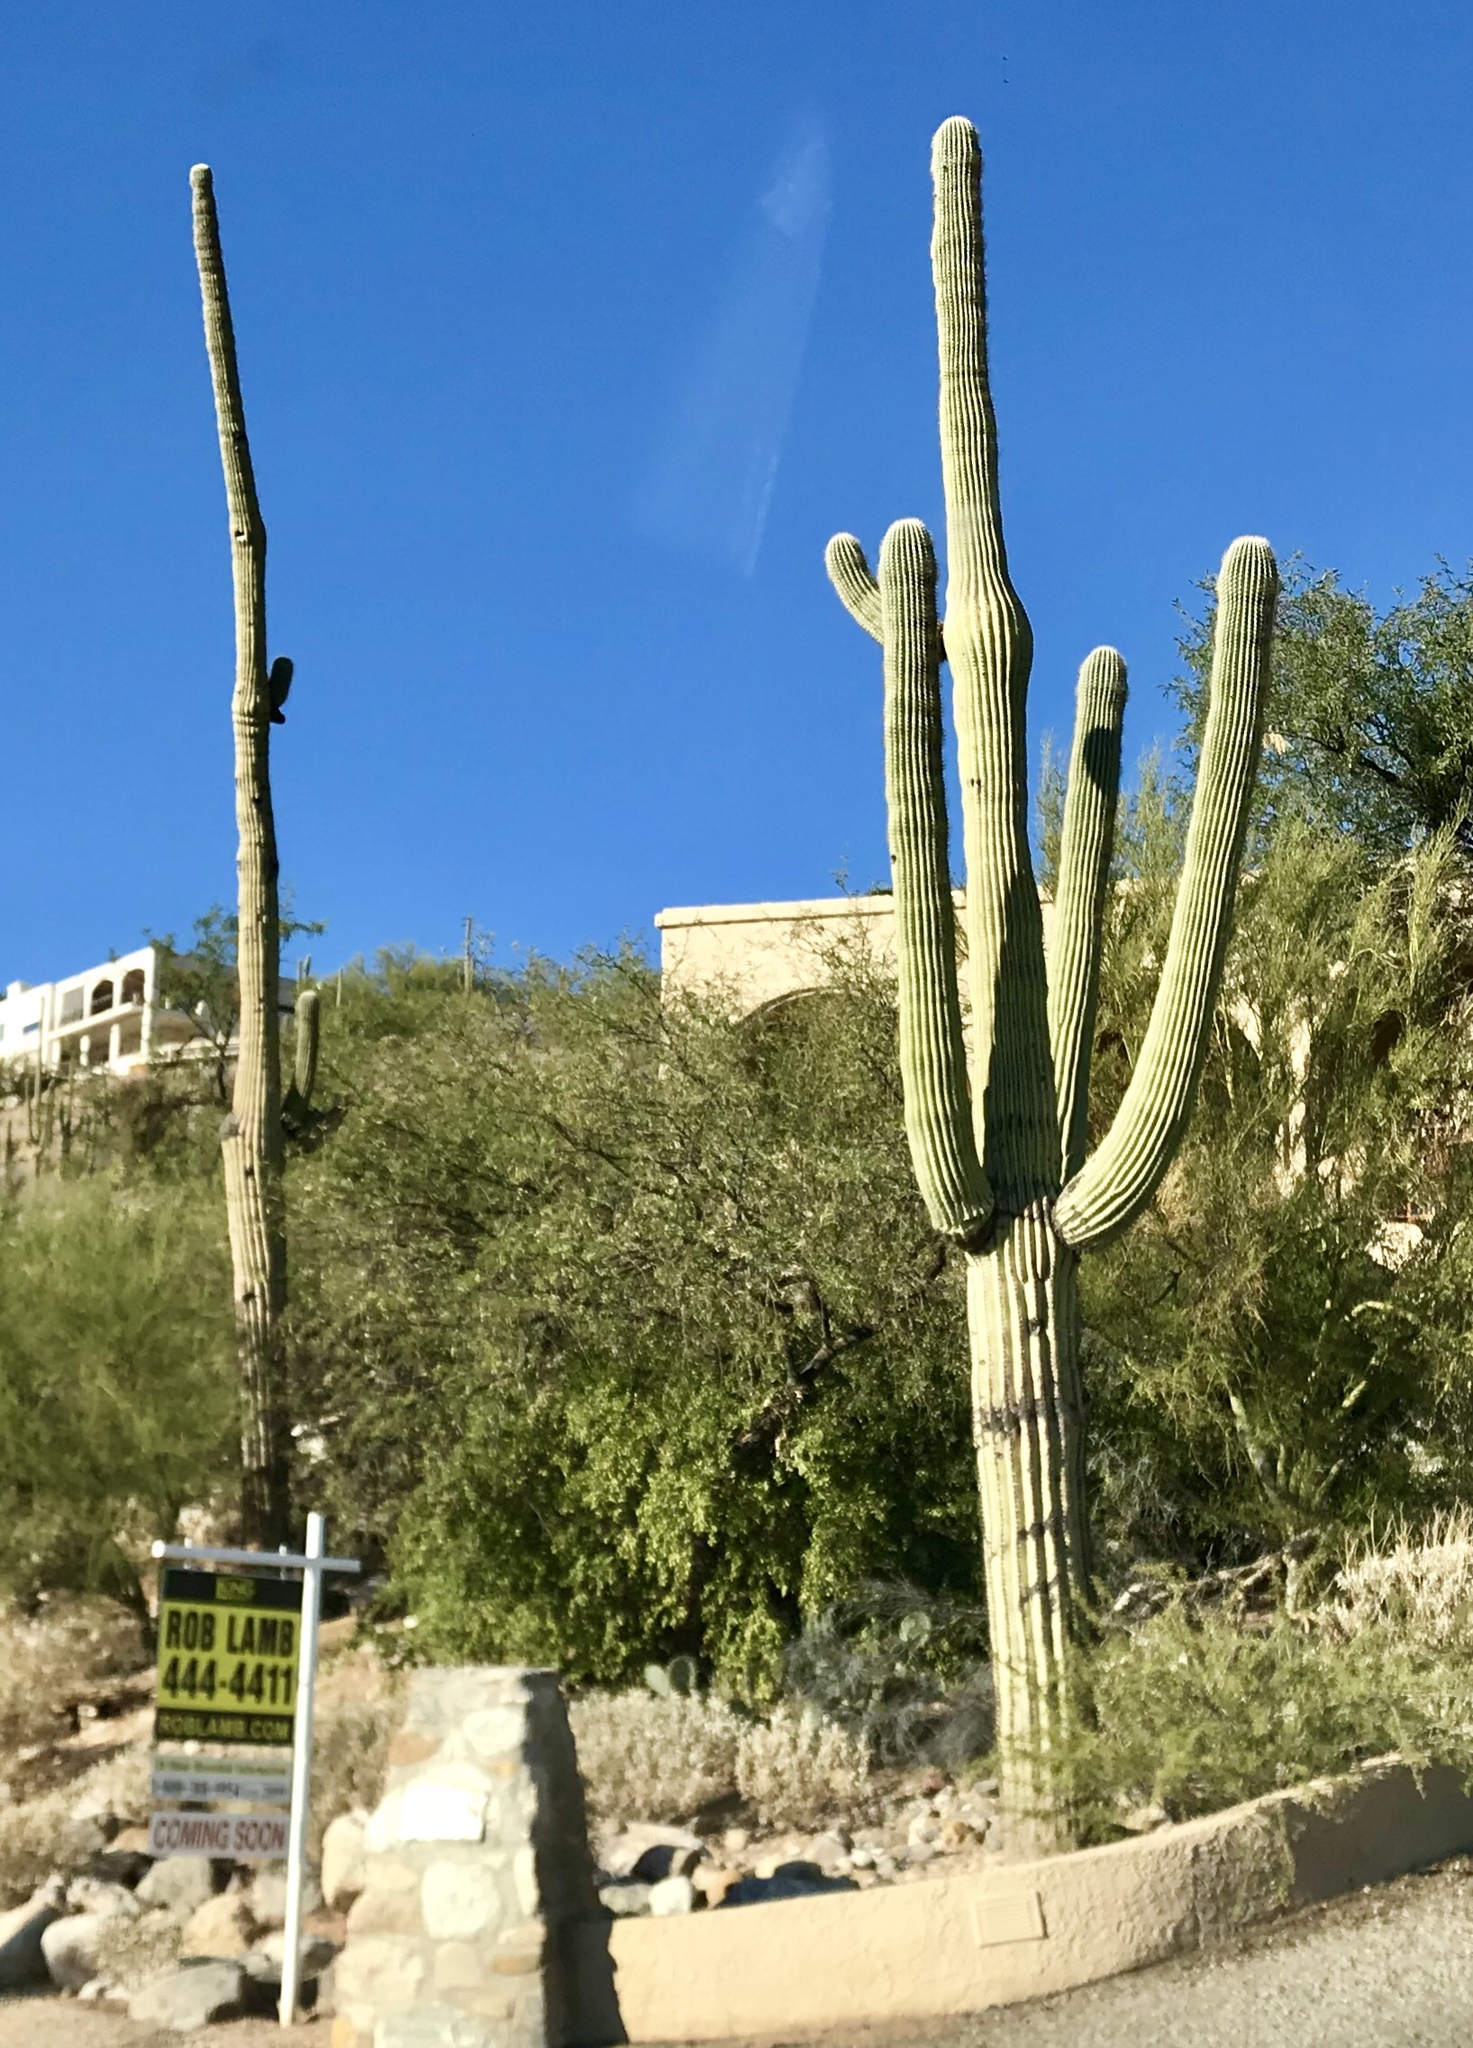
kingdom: Plantae
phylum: Tracheophyta
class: Magnoliopsida
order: Caryophyllales
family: Cactaceae
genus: Carnegiea
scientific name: Carnegiea gigantea
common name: Saguaro
